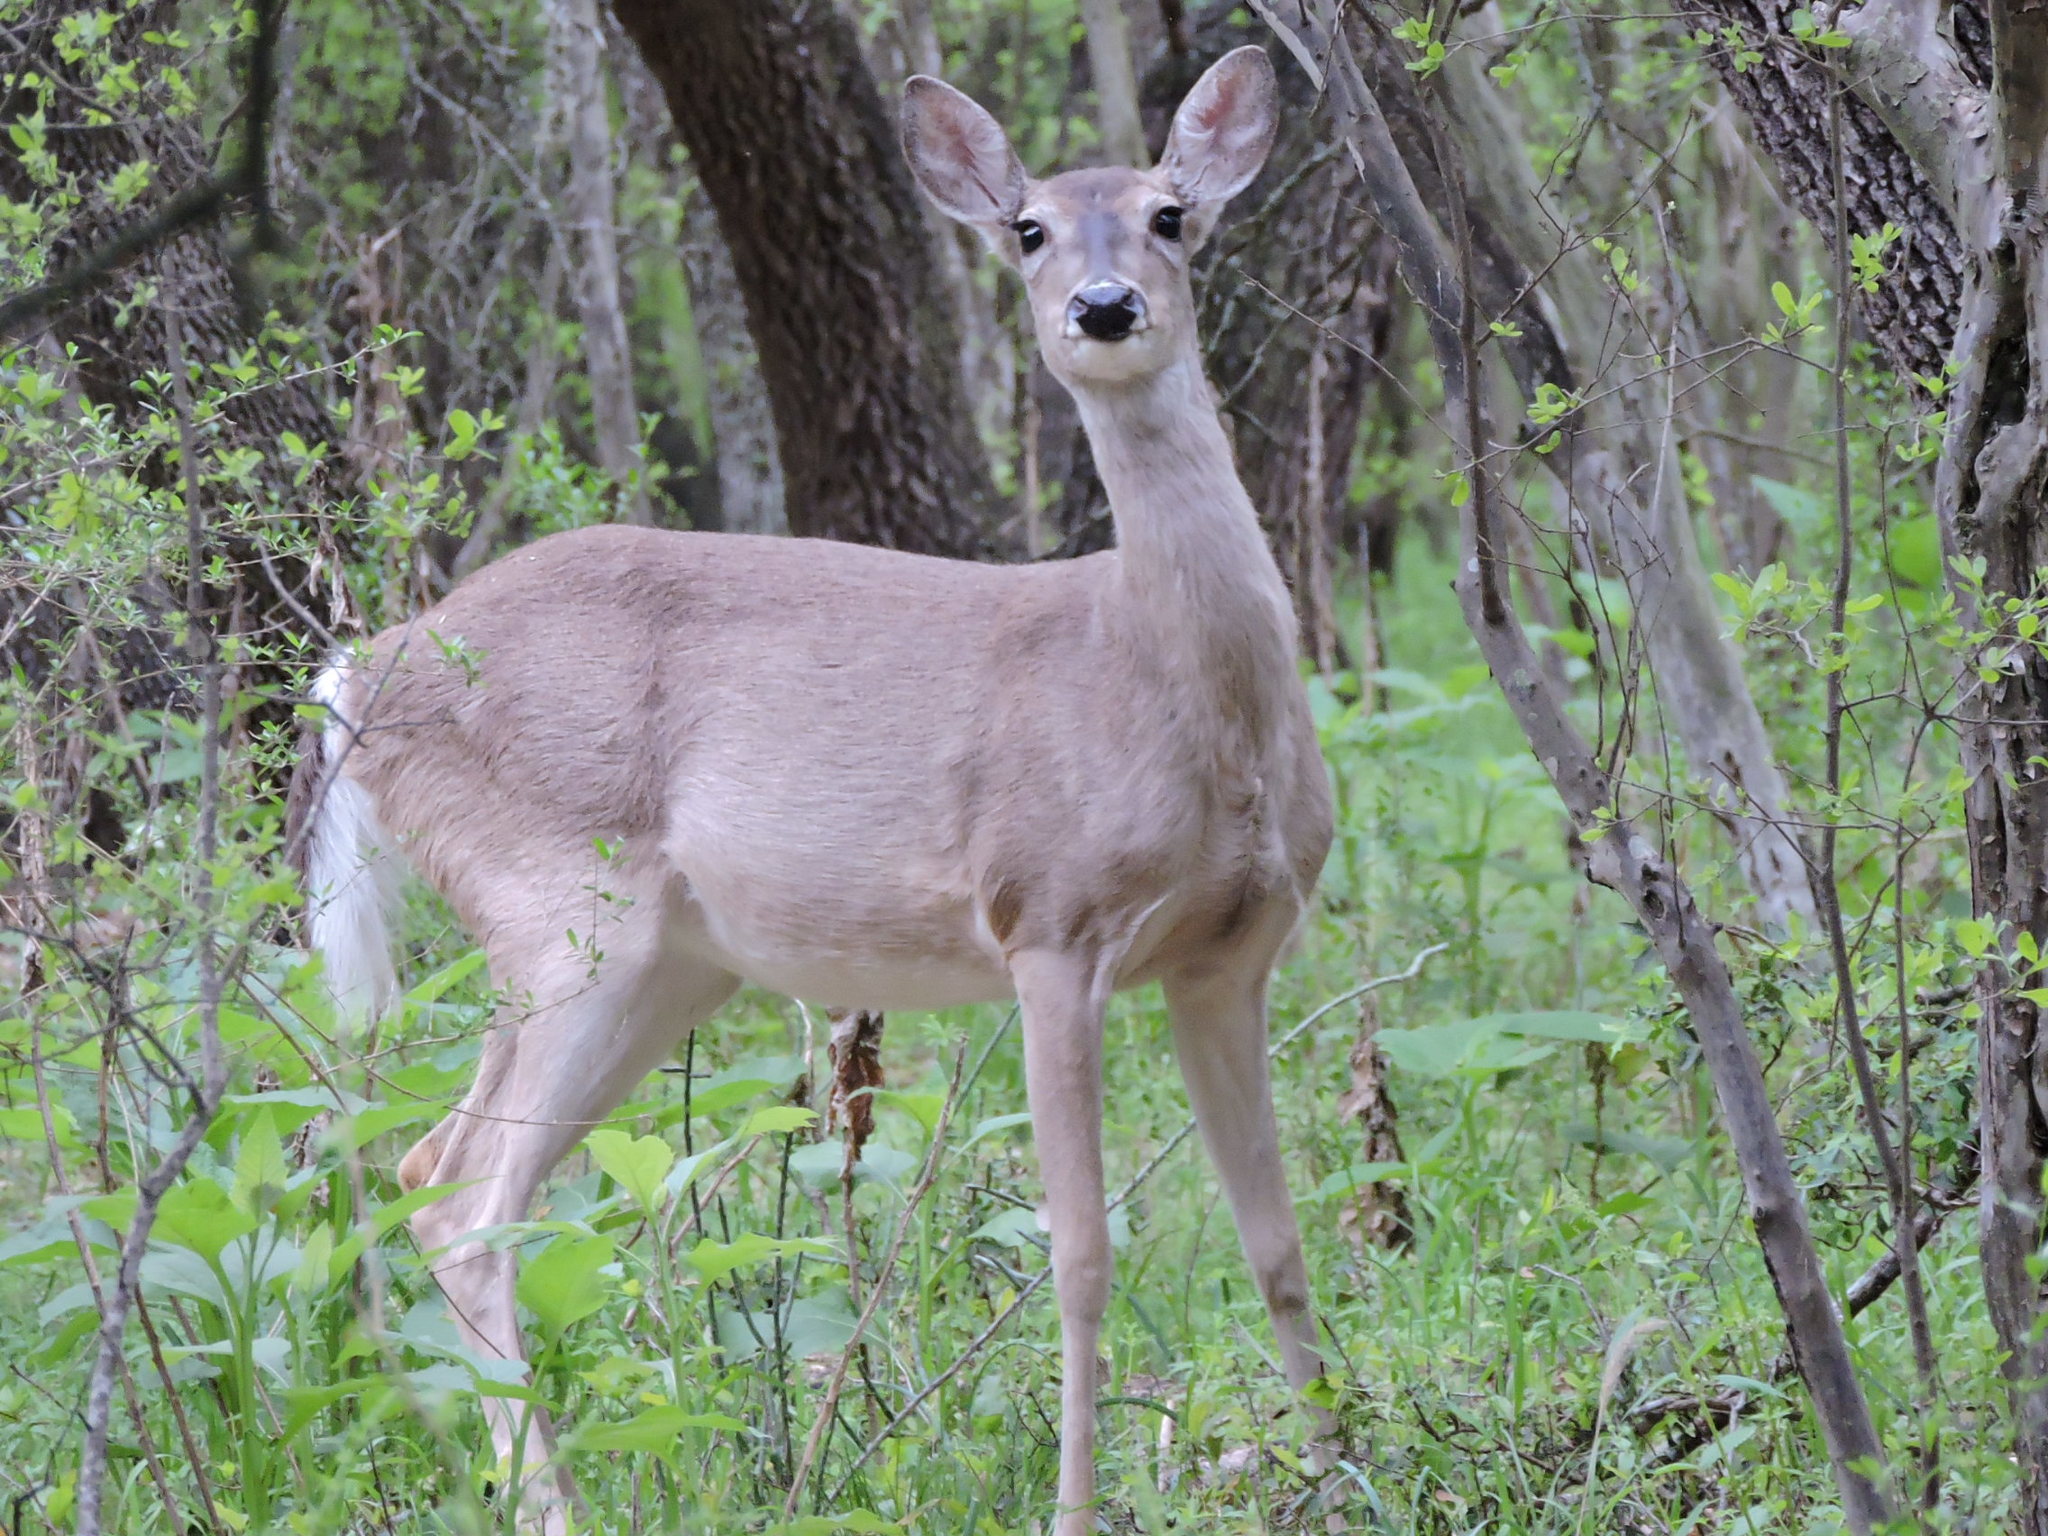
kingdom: Animalia
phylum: Chordata
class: Mammalia
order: Artiodactyla
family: Cervidae
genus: Odocoileus
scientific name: Odocoileus virginianus
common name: White-tailed deer
